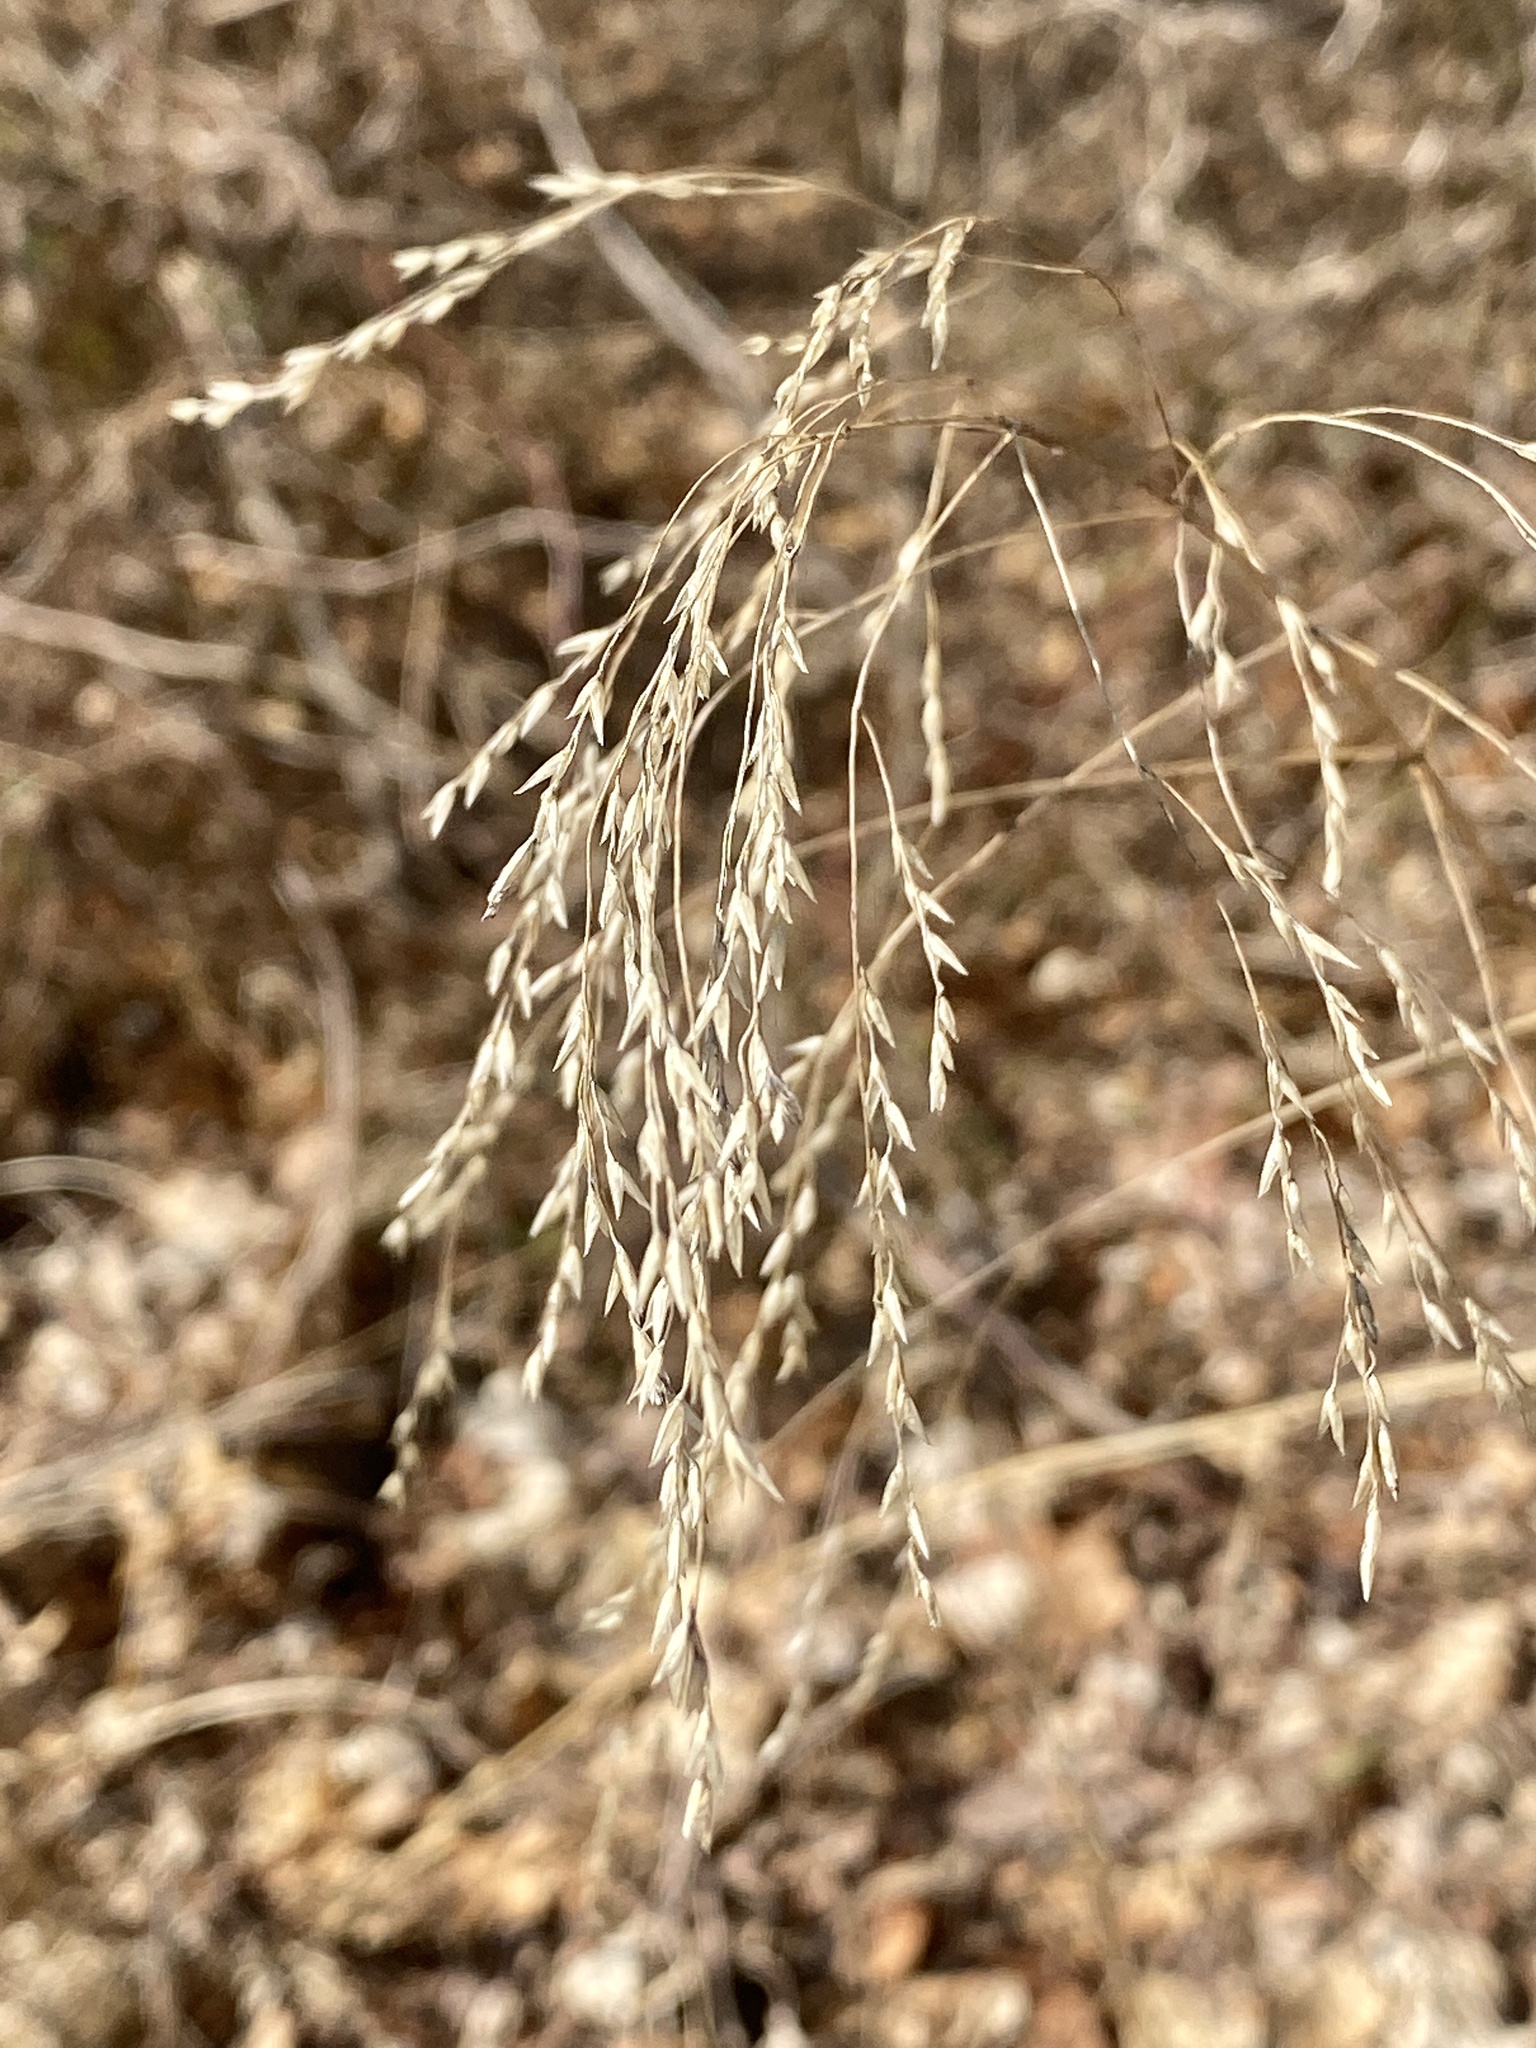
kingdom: Plantae
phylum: Tracheophyta
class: Liliopsida
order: Poales
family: Poaceae
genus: Tridens
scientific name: Tridens flavus
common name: Purpletop
